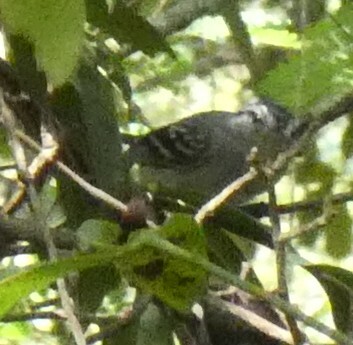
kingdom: Animalia
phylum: Chordata
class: Aves
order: Passeriformes
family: Thamnophilidae
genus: Herpsilochmus
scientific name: Herpsilochmus atricapillus
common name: Black-capped antwren
